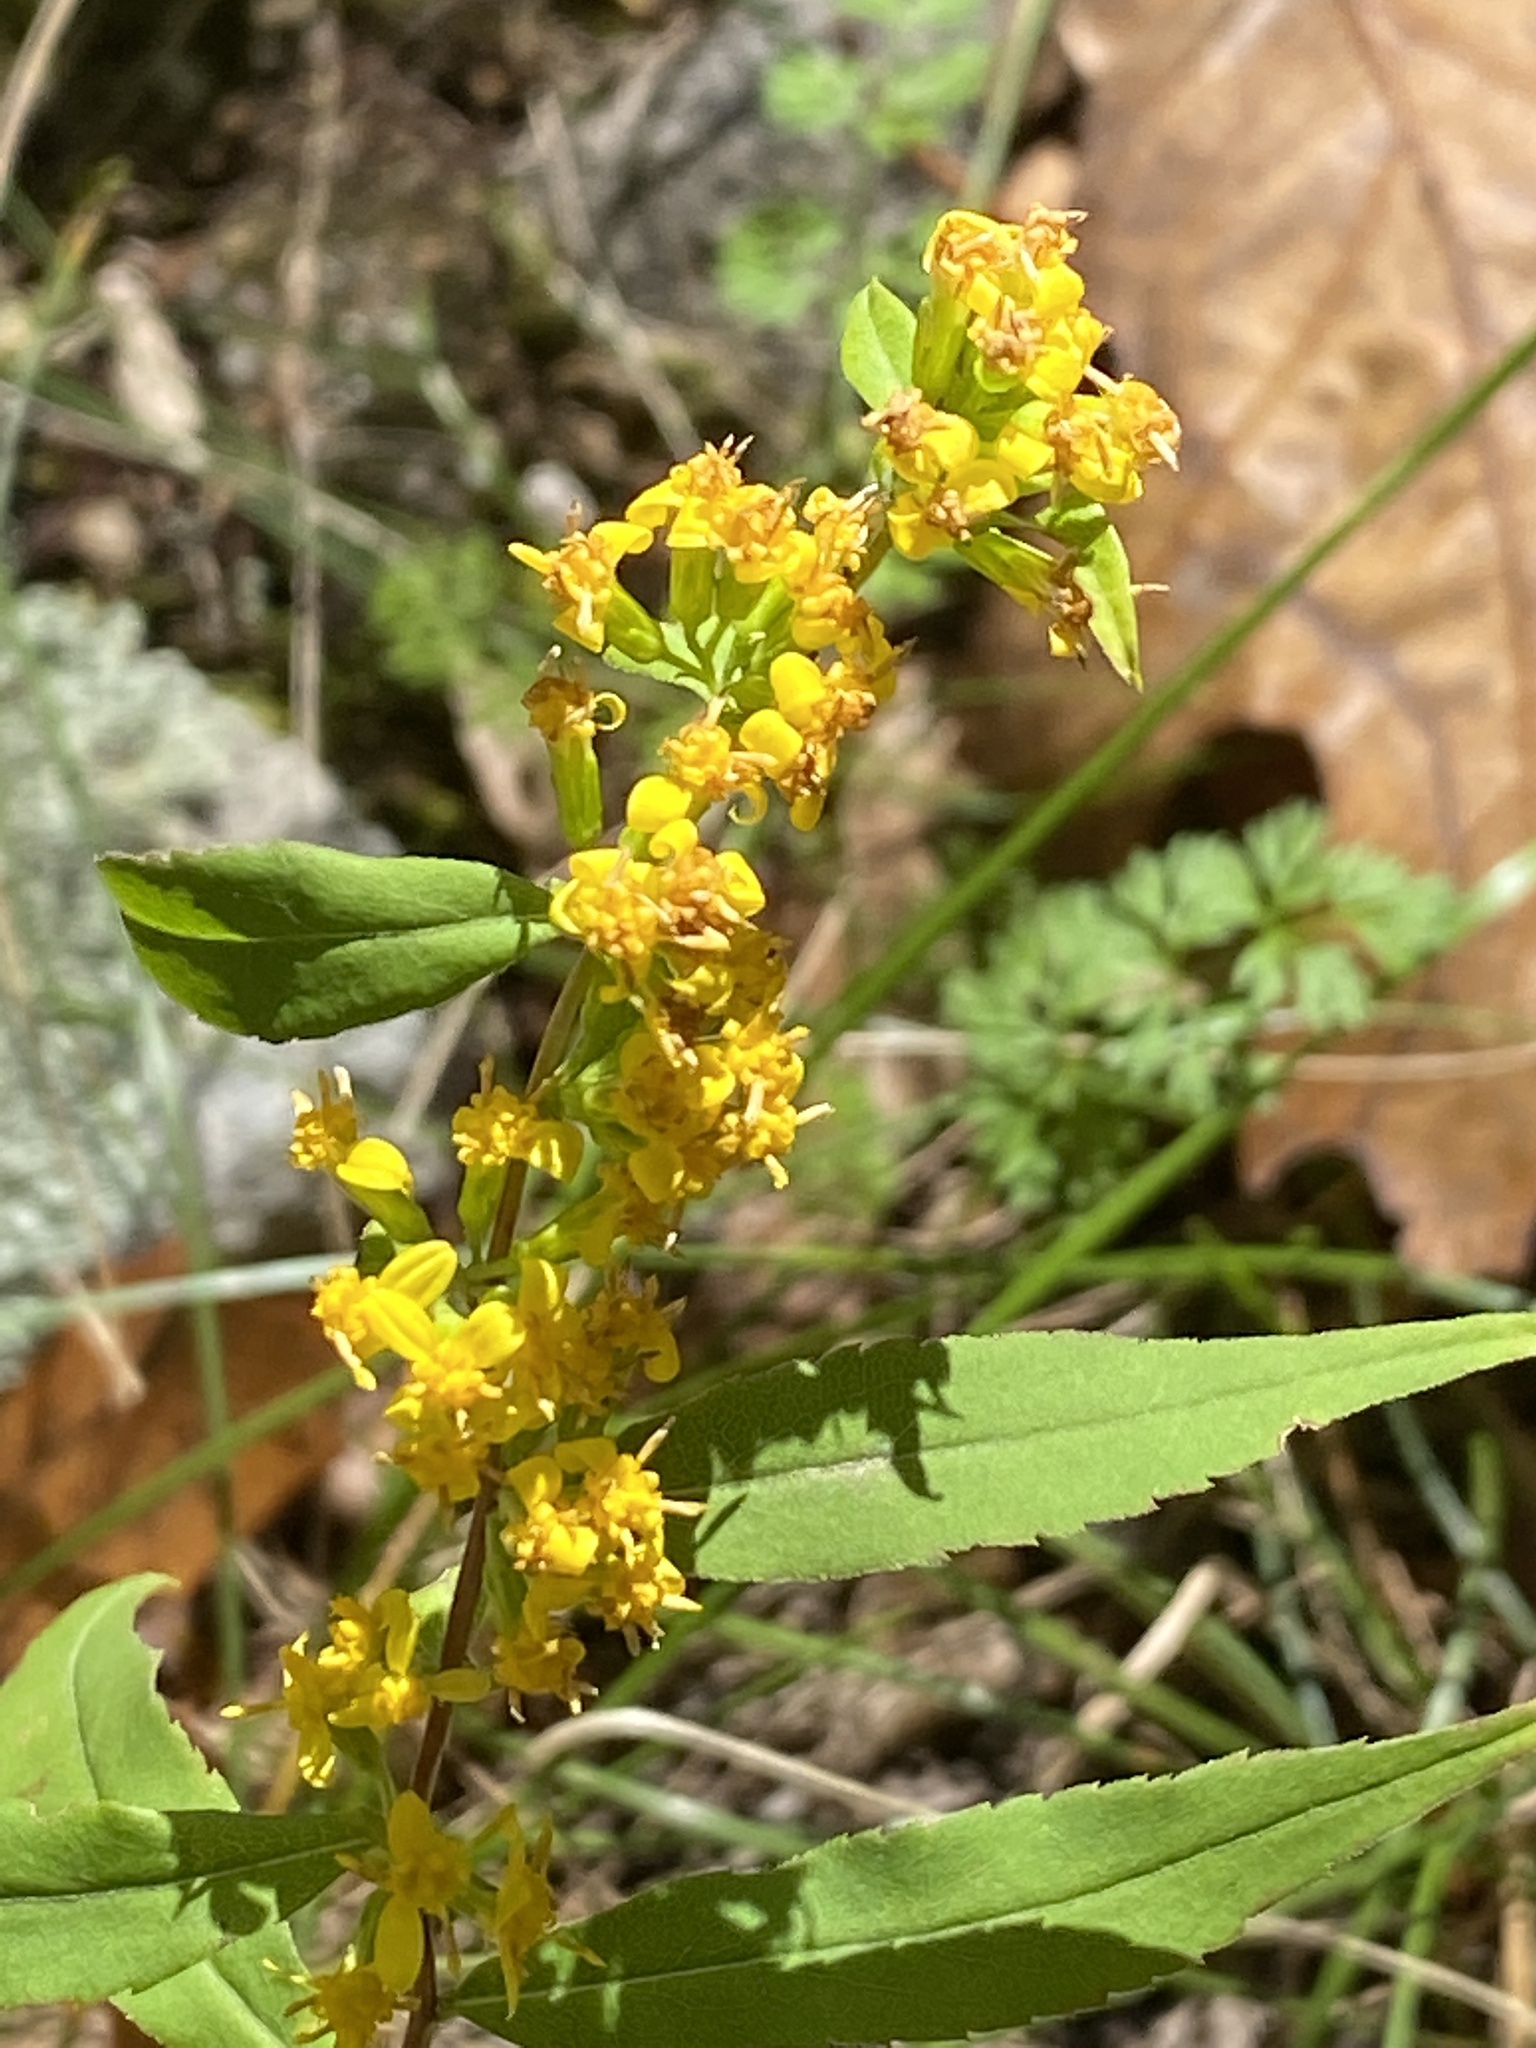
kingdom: Plantae
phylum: Tracheophyta
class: Magnoliopsida
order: Asterales
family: Asteraceae
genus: Solidago
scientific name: Solidago caesia
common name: Woodland goldenrod
